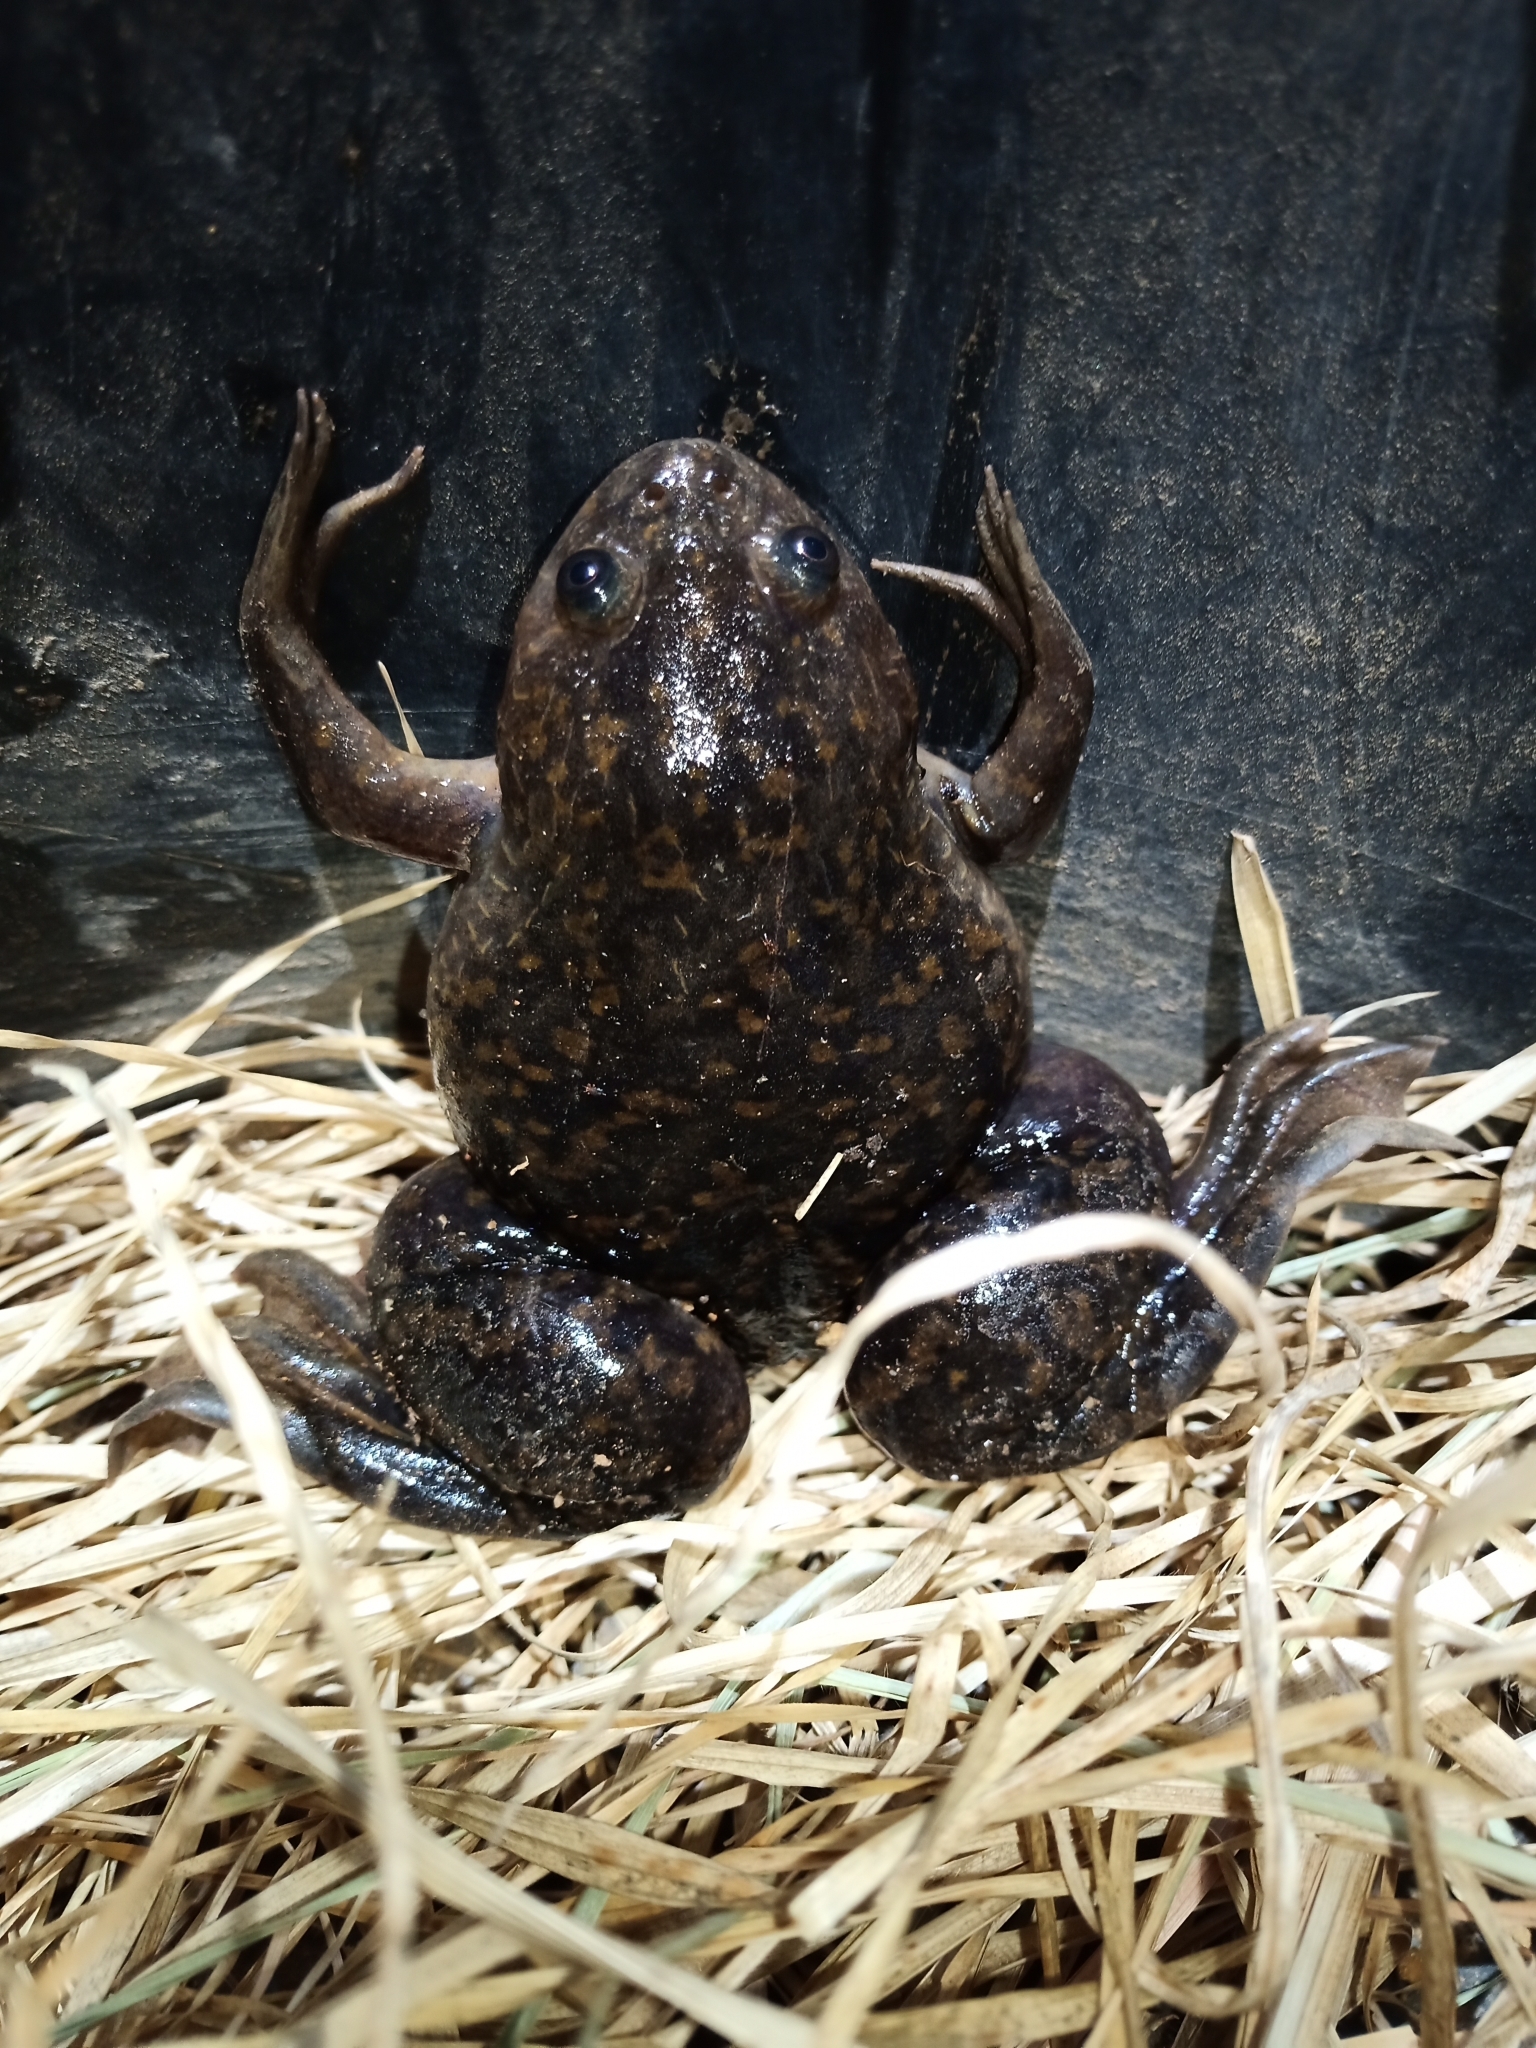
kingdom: Animalia
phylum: Chordata
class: Amphibia
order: Anura
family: Pipidae
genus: Xenopus
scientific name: Xenopus laevis
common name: African clawed frog
